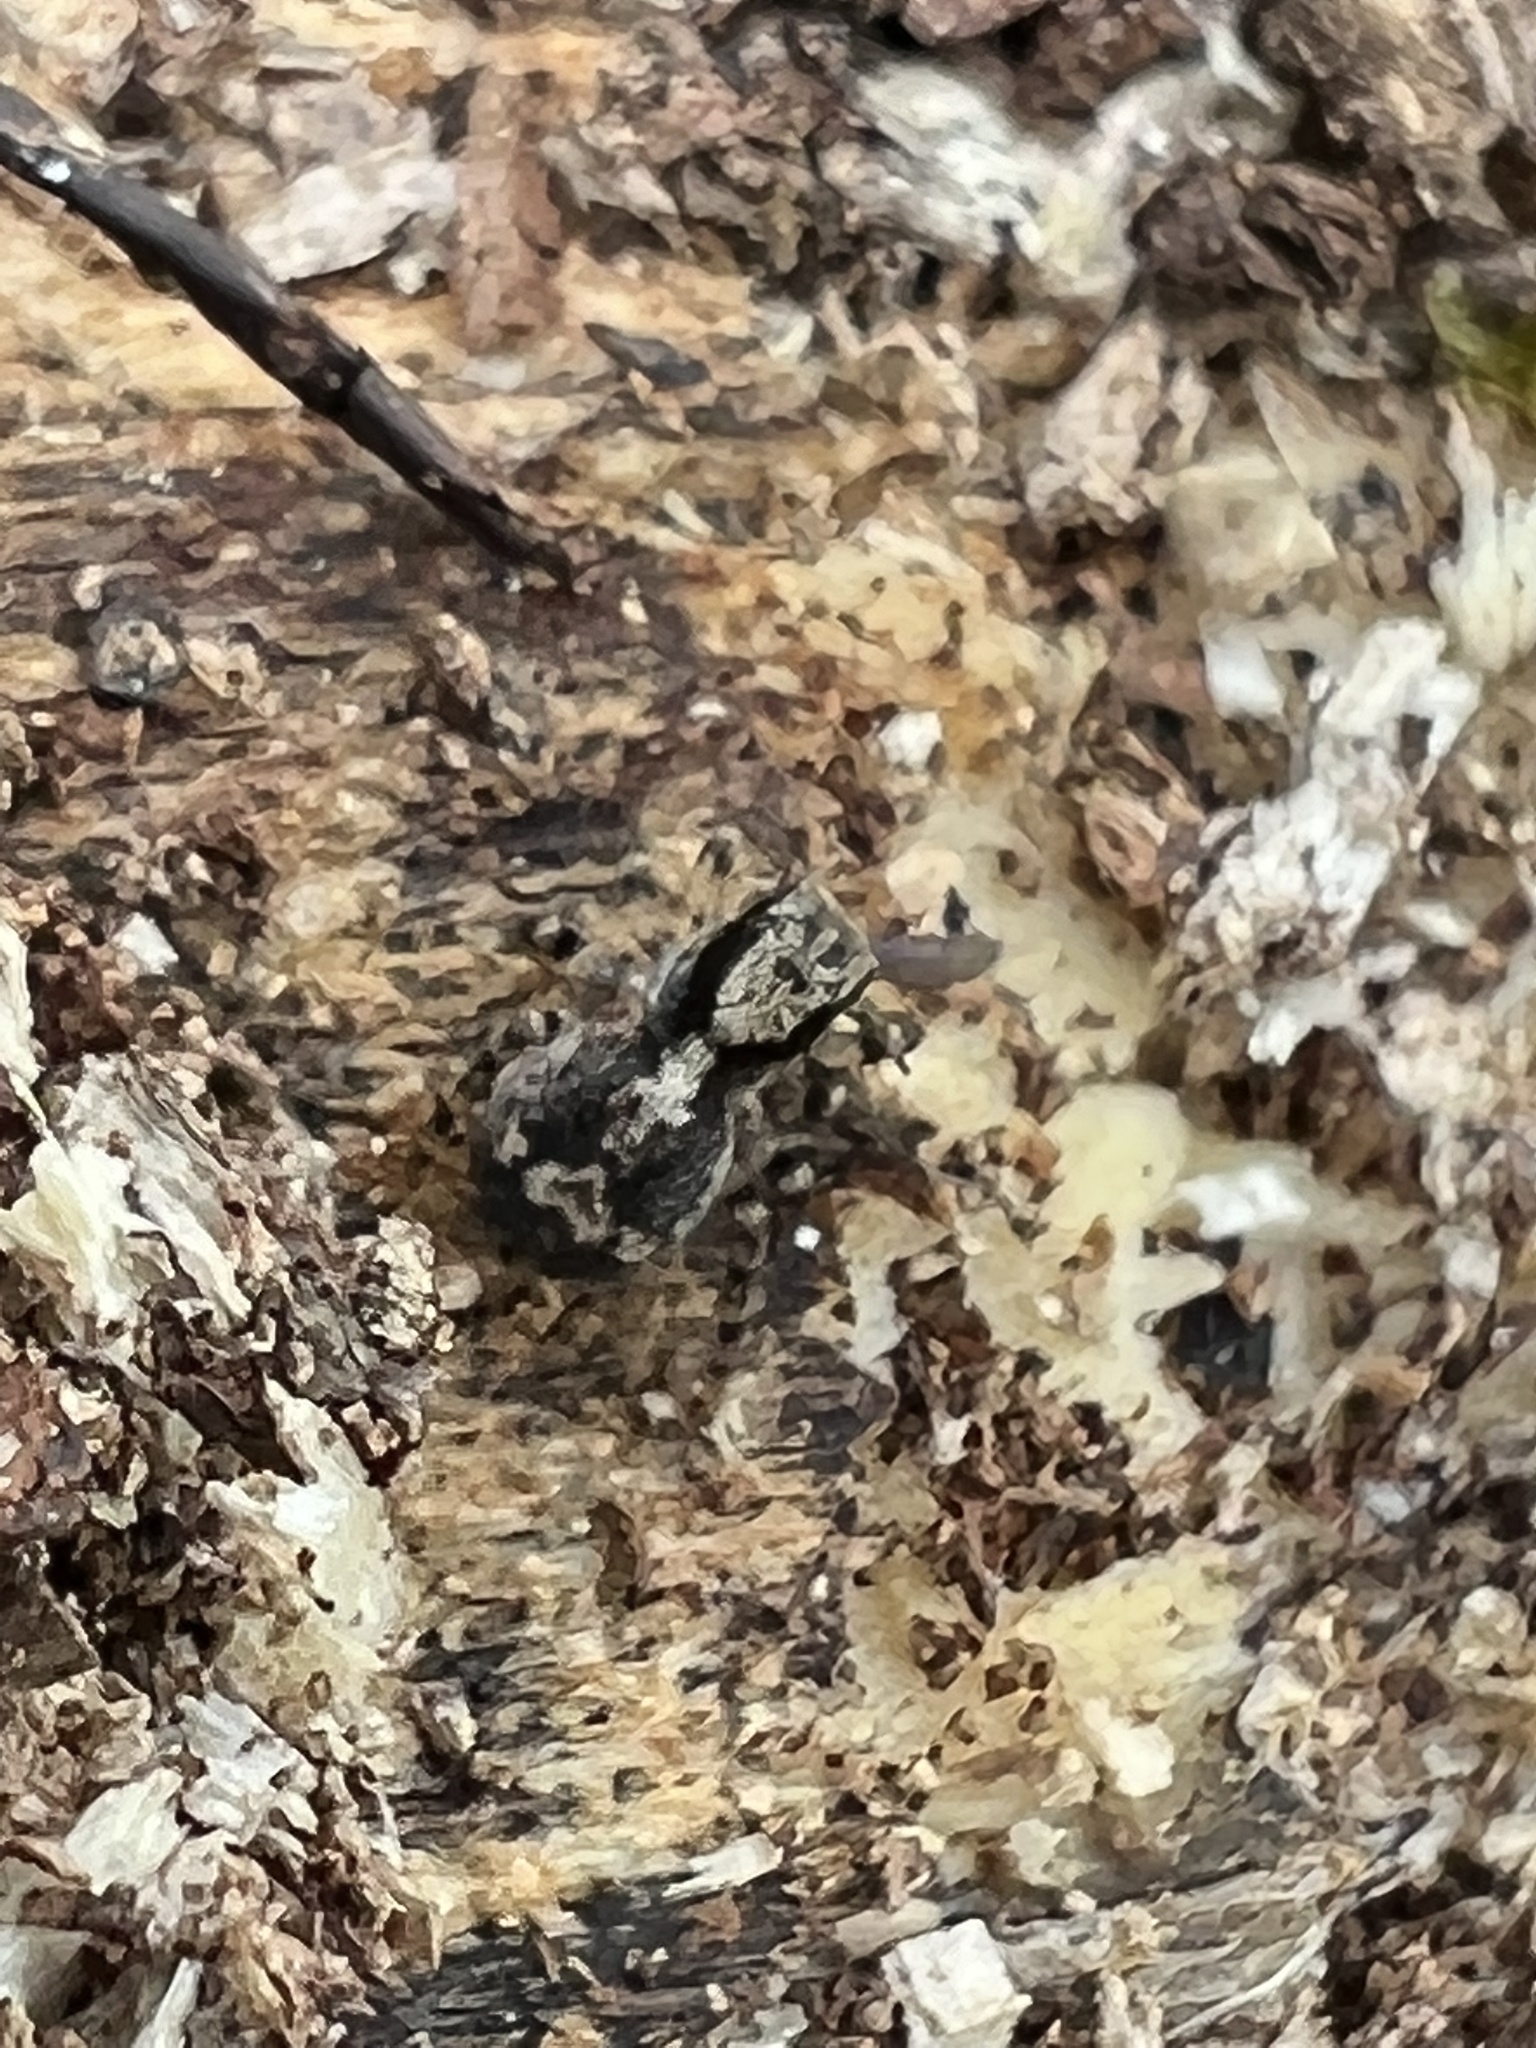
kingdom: Animalia
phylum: Arthropoda
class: Arachnida
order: Araneae
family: Salticidae
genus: Naphrys
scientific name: Naphrys pulex
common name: Flea jumping spider
